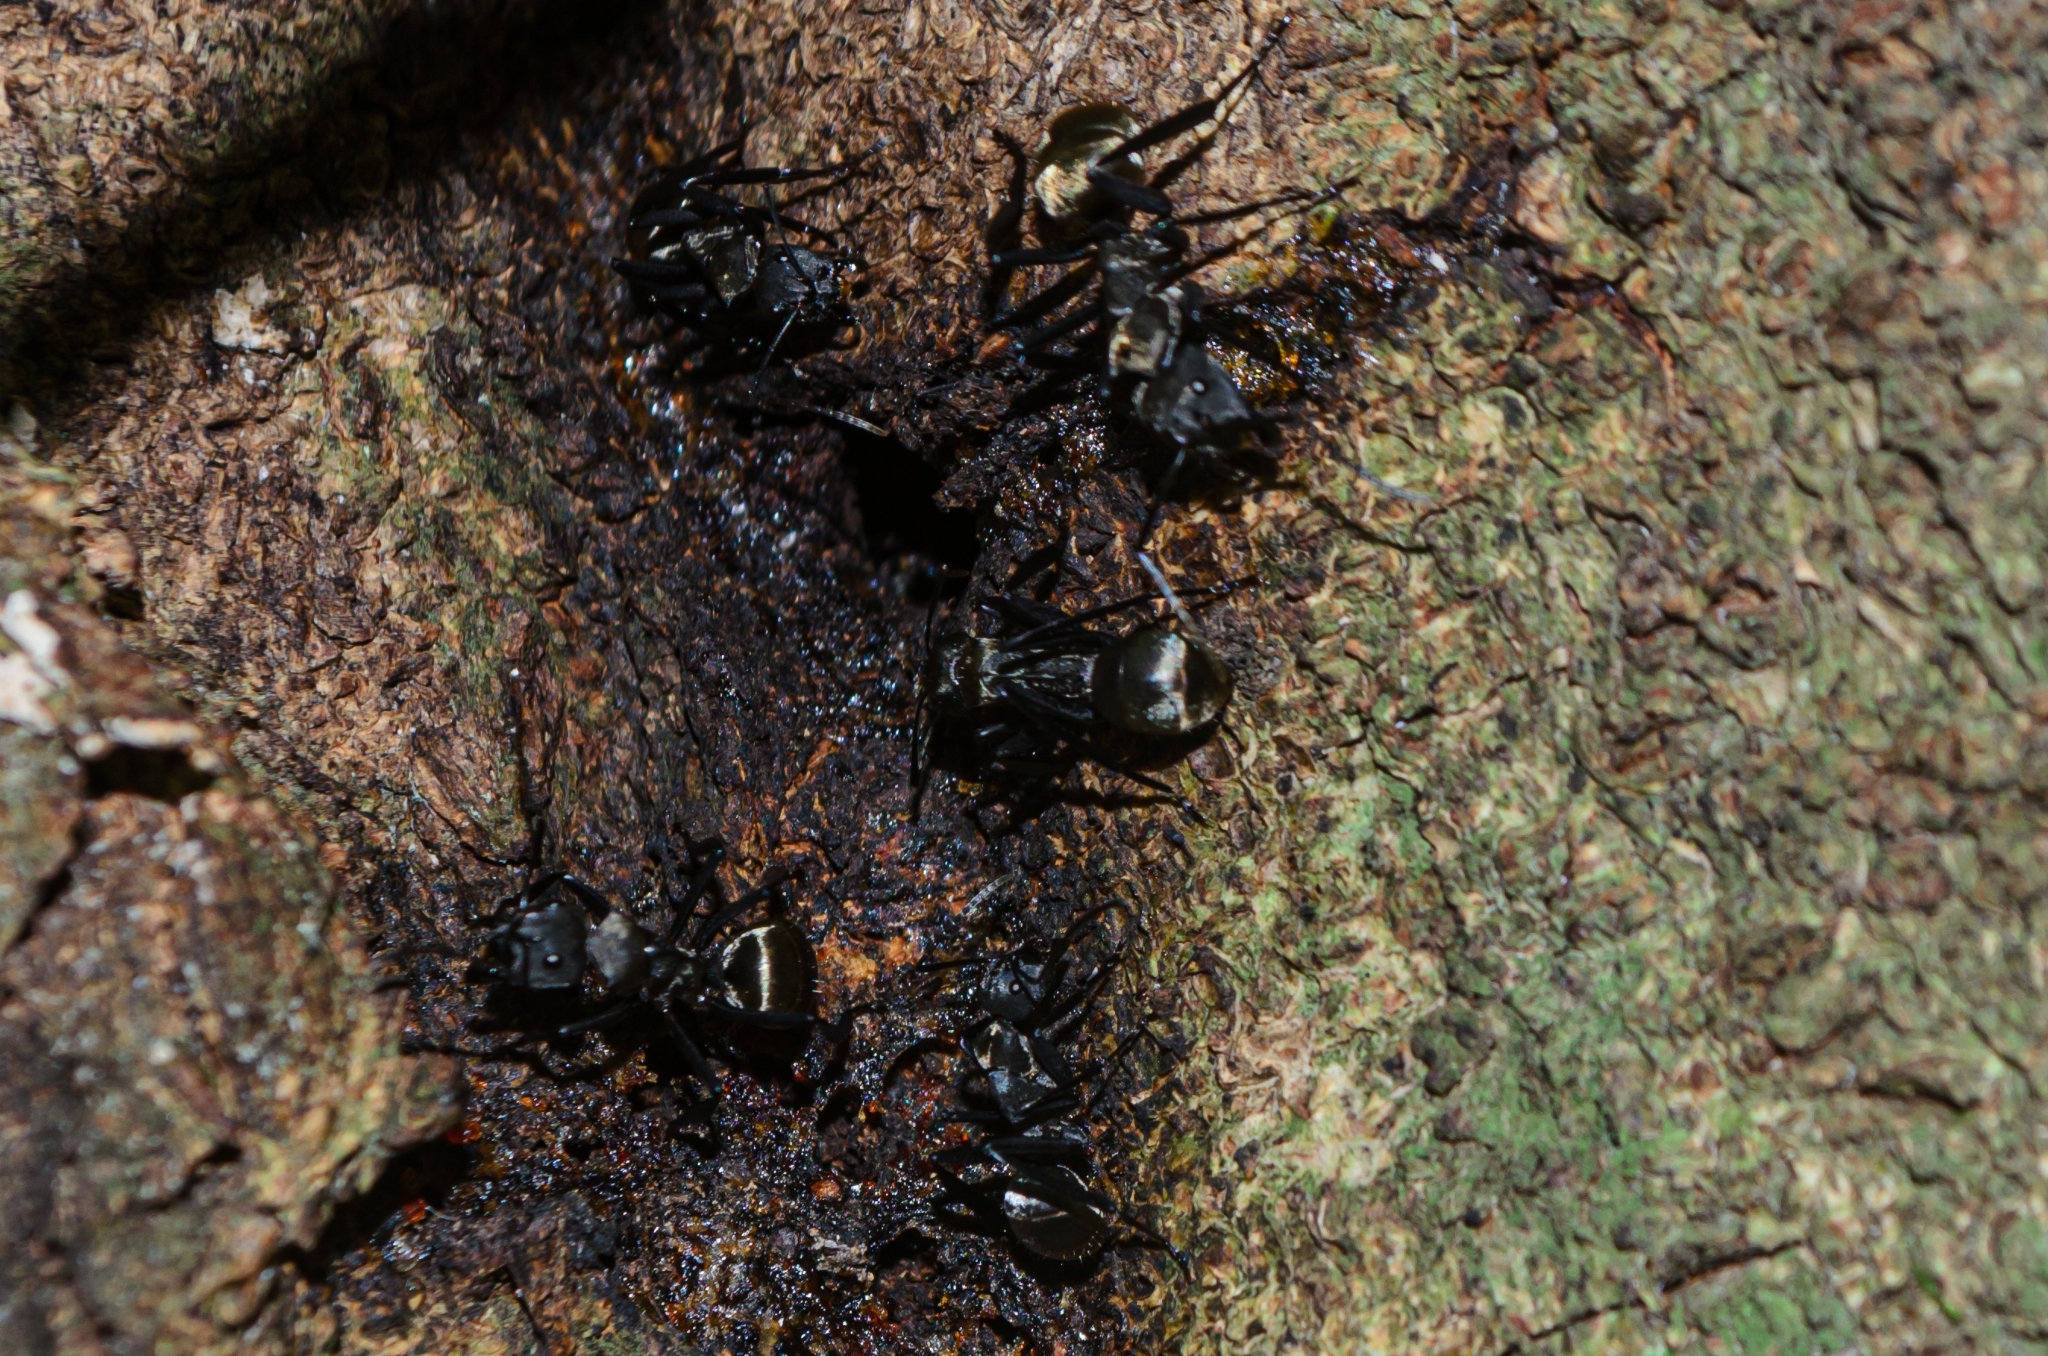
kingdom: Animalia
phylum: Arthropoda
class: Insecta
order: Hymenoptera
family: Formicidae
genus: Camponotus
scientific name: Camponotus sericeiventris
